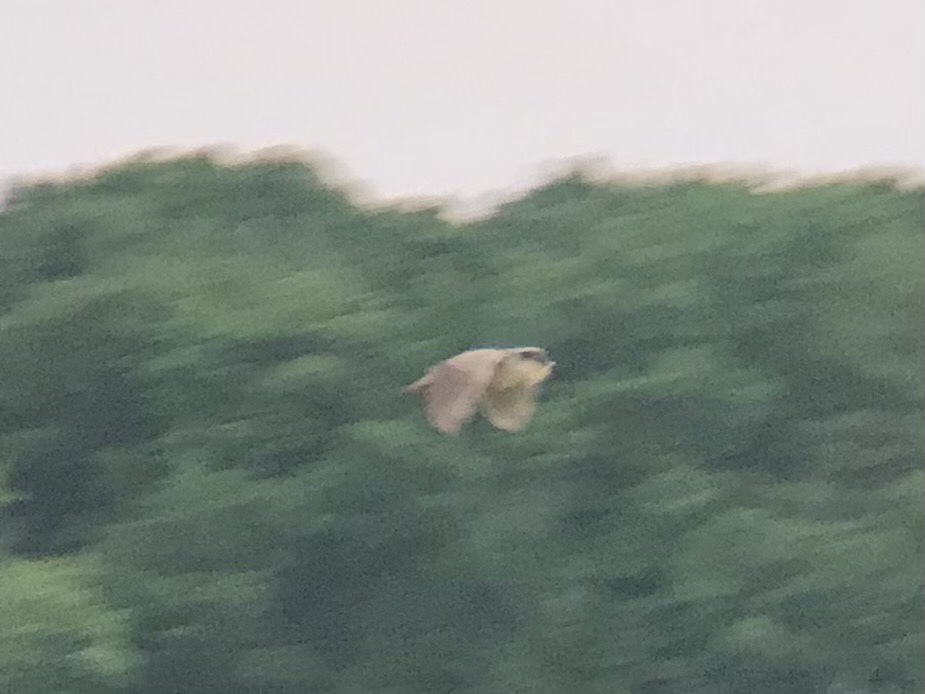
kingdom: Animalia
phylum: Chordata
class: Aves
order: Pelecaniformes
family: Ardeidae
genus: Nycticorax
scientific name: Nycticorax nycticorax
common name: Black-crowned night heron
